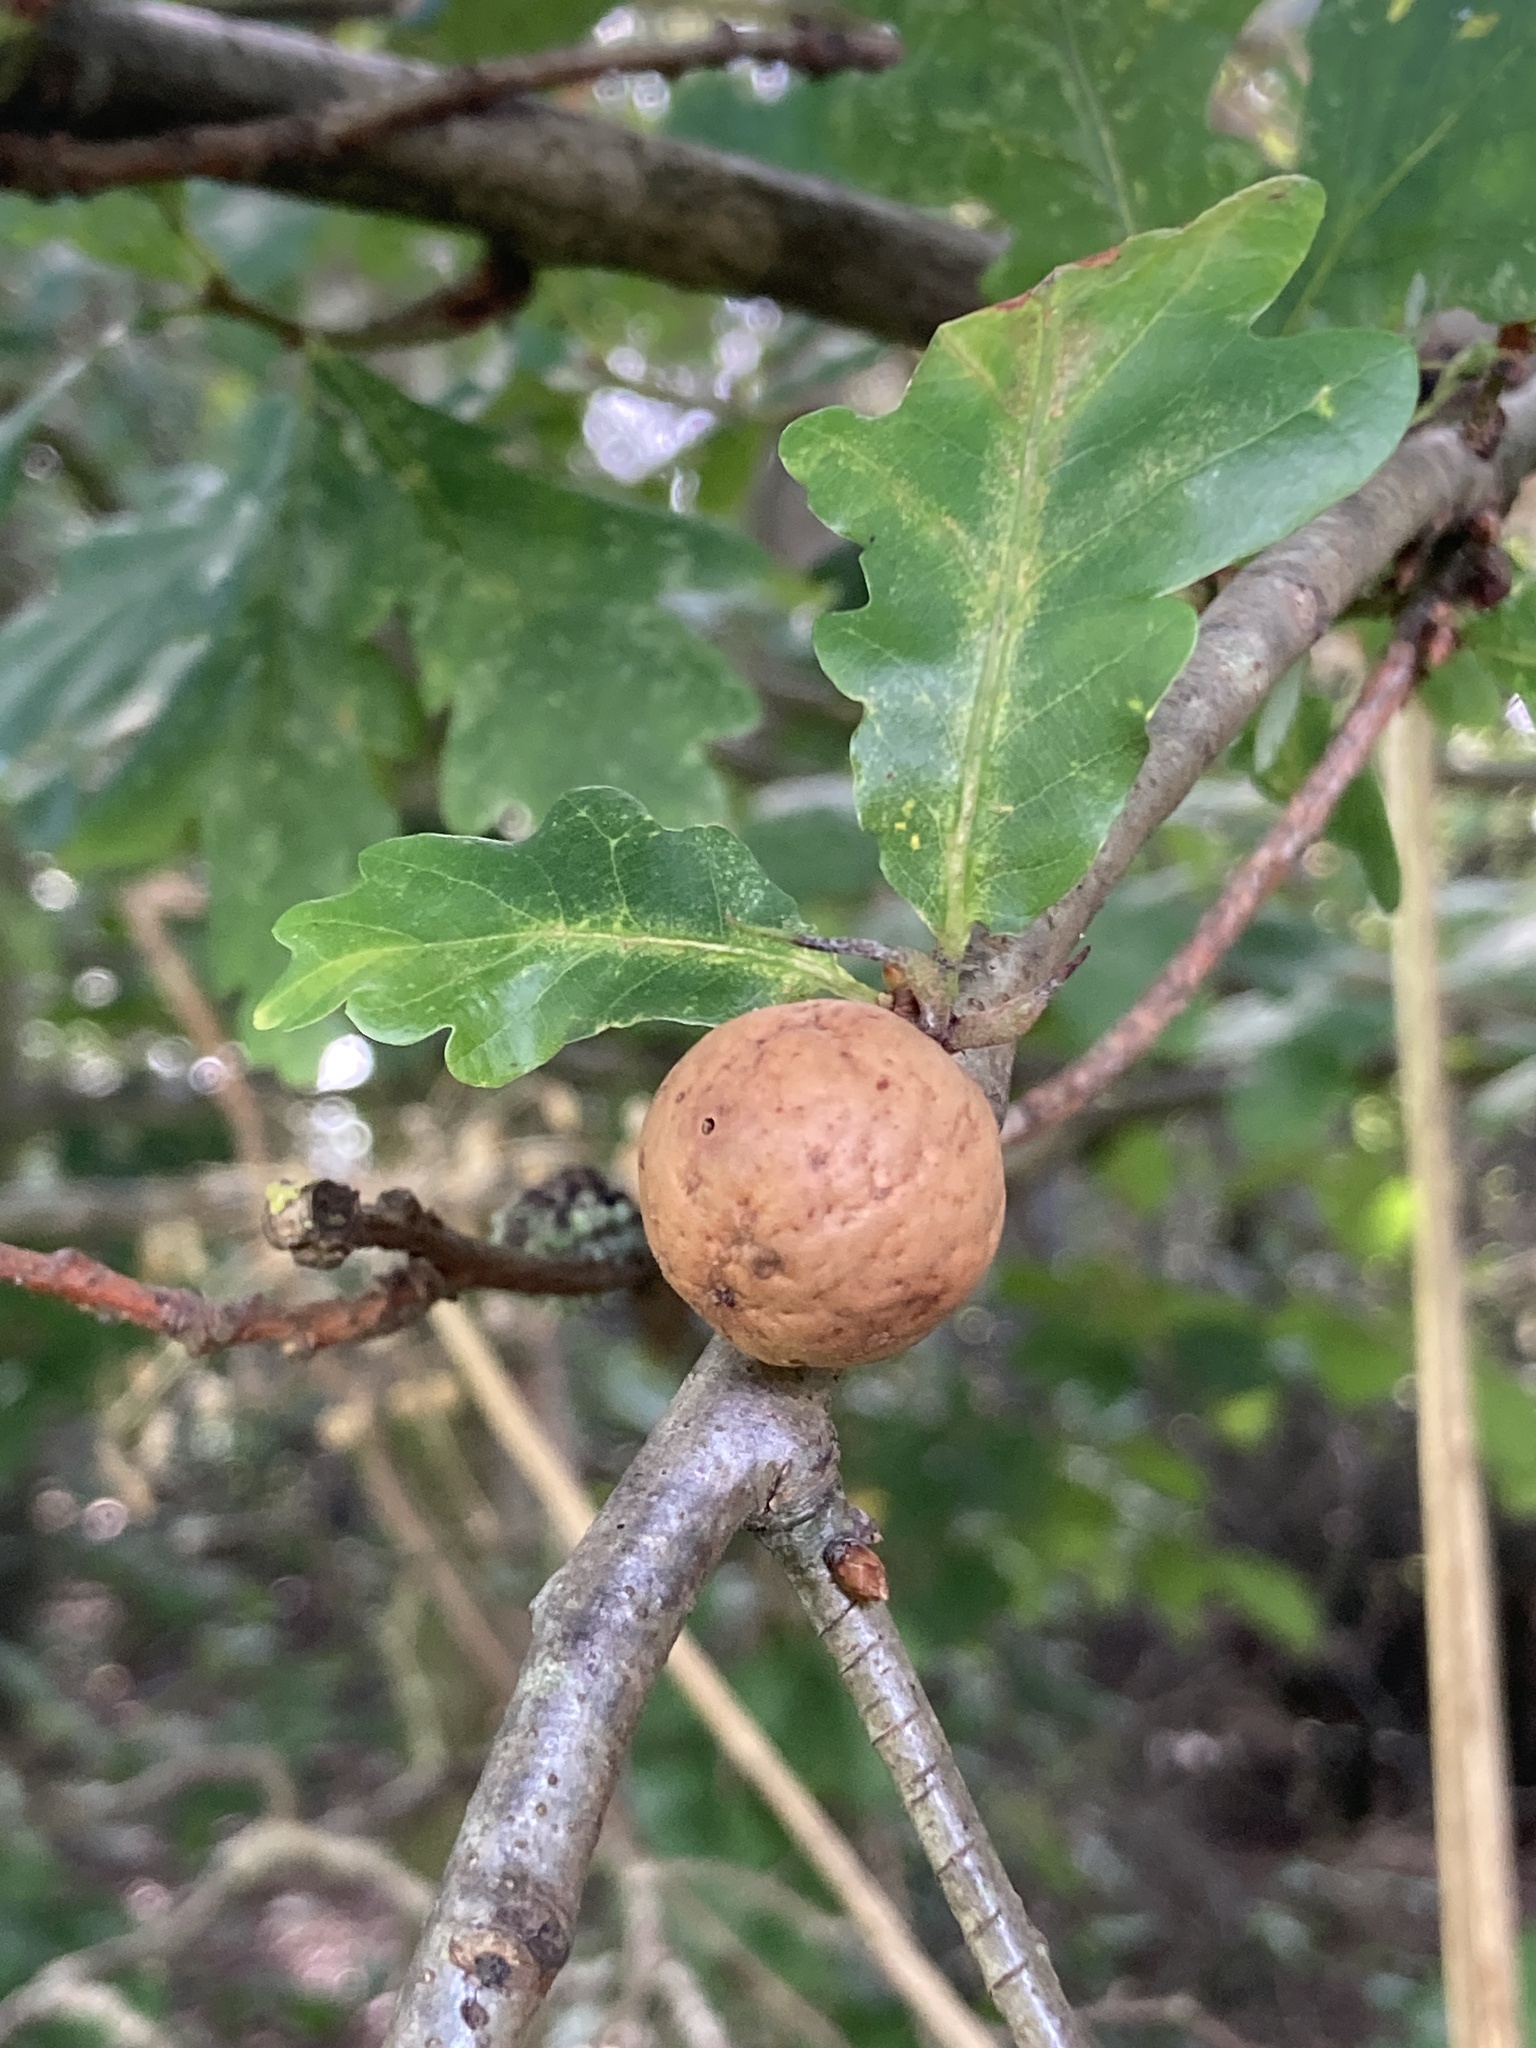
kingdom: Animalia
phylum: Arthropoda
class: Insecta
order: Hymenoptera
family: Cynipidae
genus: Andricus
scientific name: Andricus kollari
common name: Marble gall
